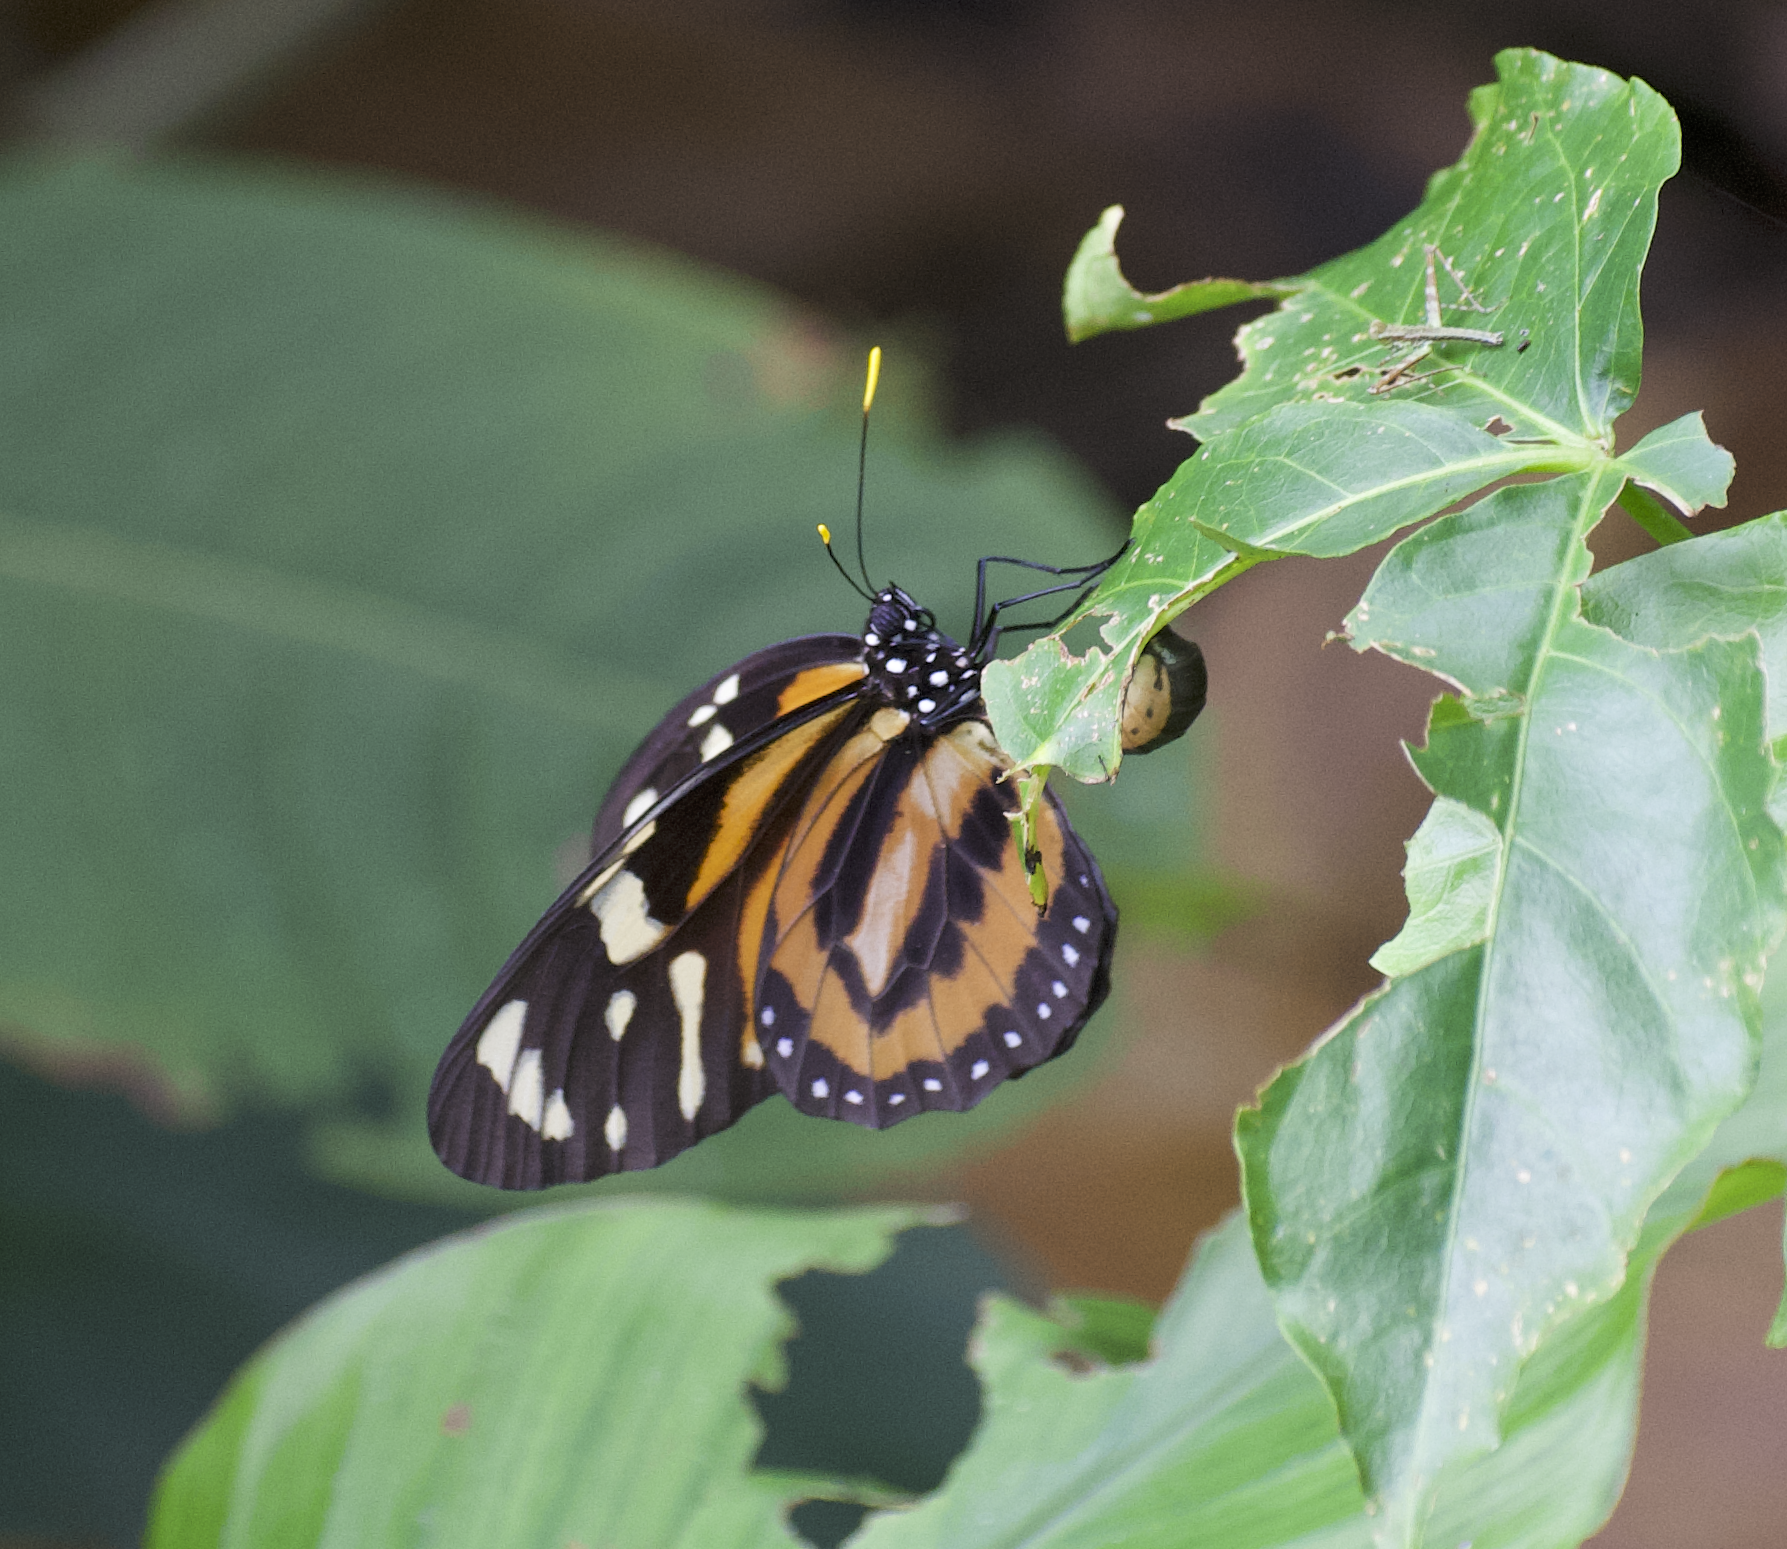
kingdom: Animalia
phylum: Arthropoda
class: Insecta
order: Lepidoptera
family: Nymphalidae
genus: Lycorea
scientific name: Lycorea cleobaea
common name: Tiger mimic-queen
